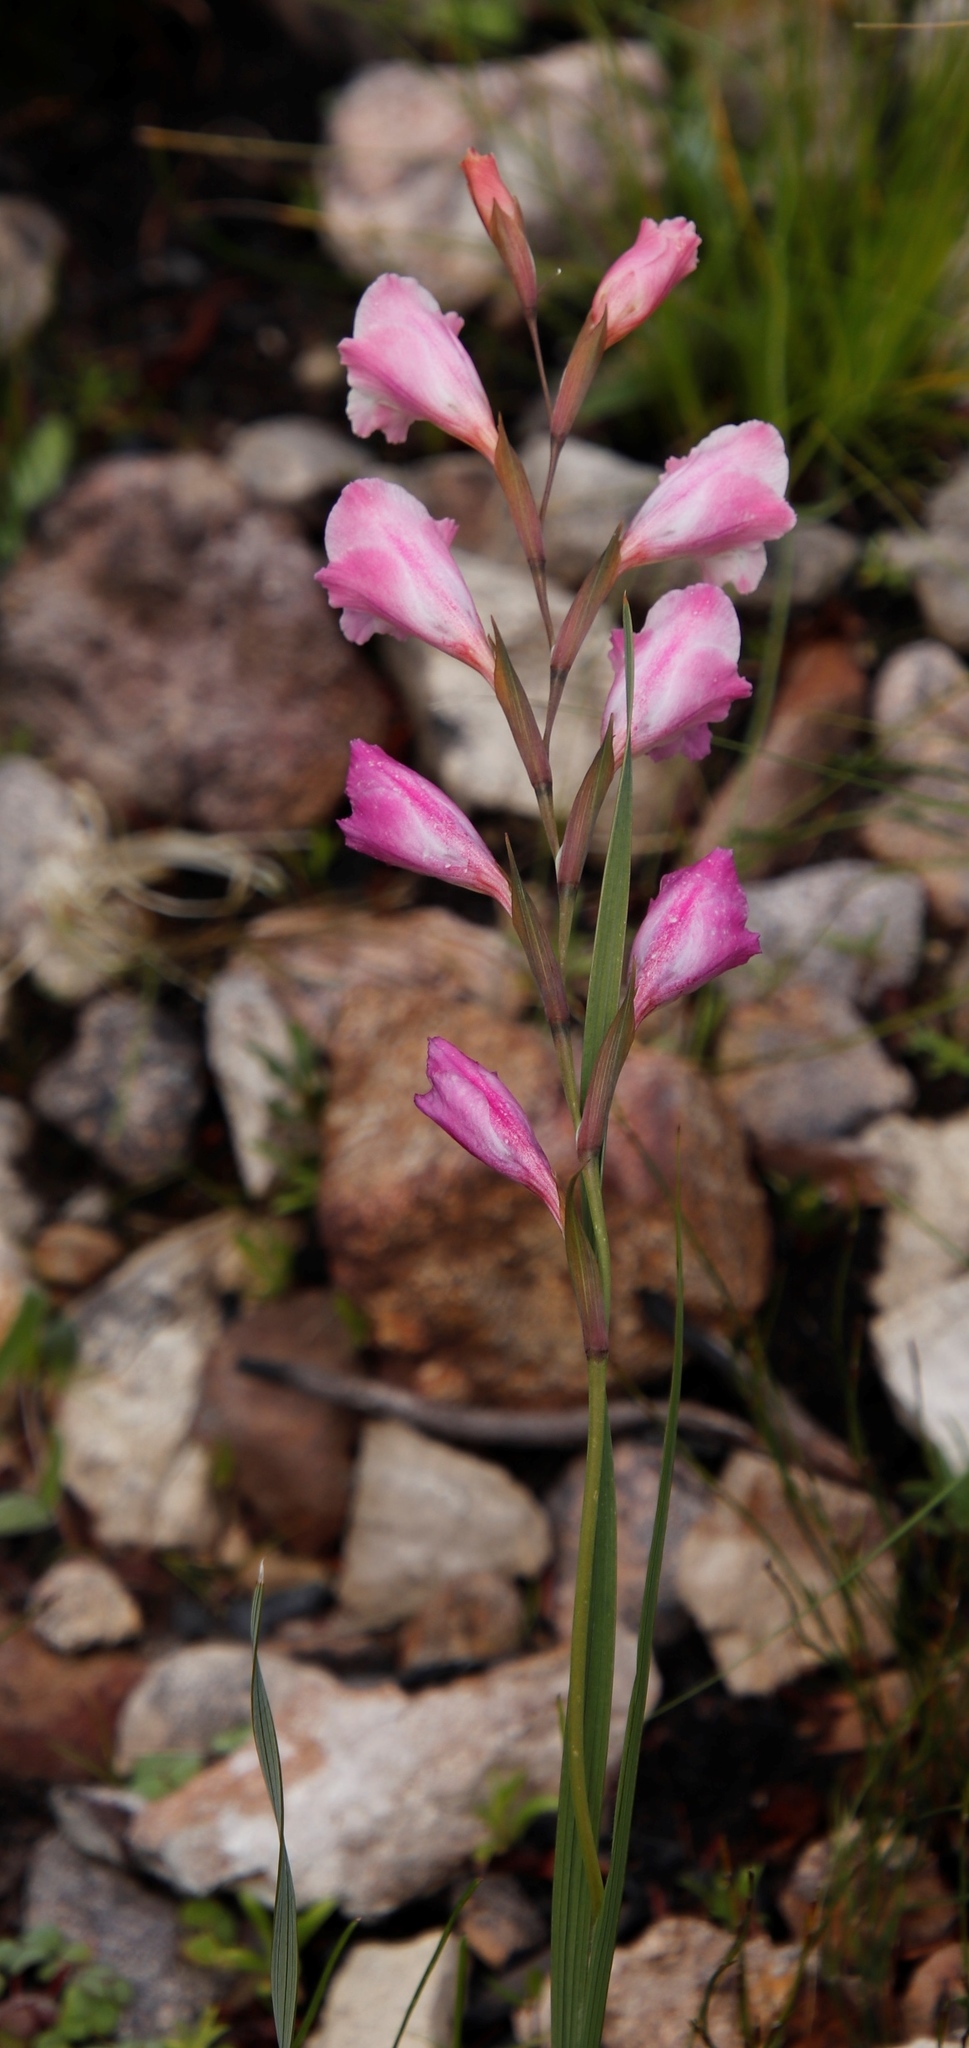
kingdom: Plantae
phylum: Tracheophyta
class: Liliopsida
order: Asparagales
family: Iridaceae
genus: Gladiolus
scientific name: Gladiolus hirsutus
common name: Small pink afrikaner
